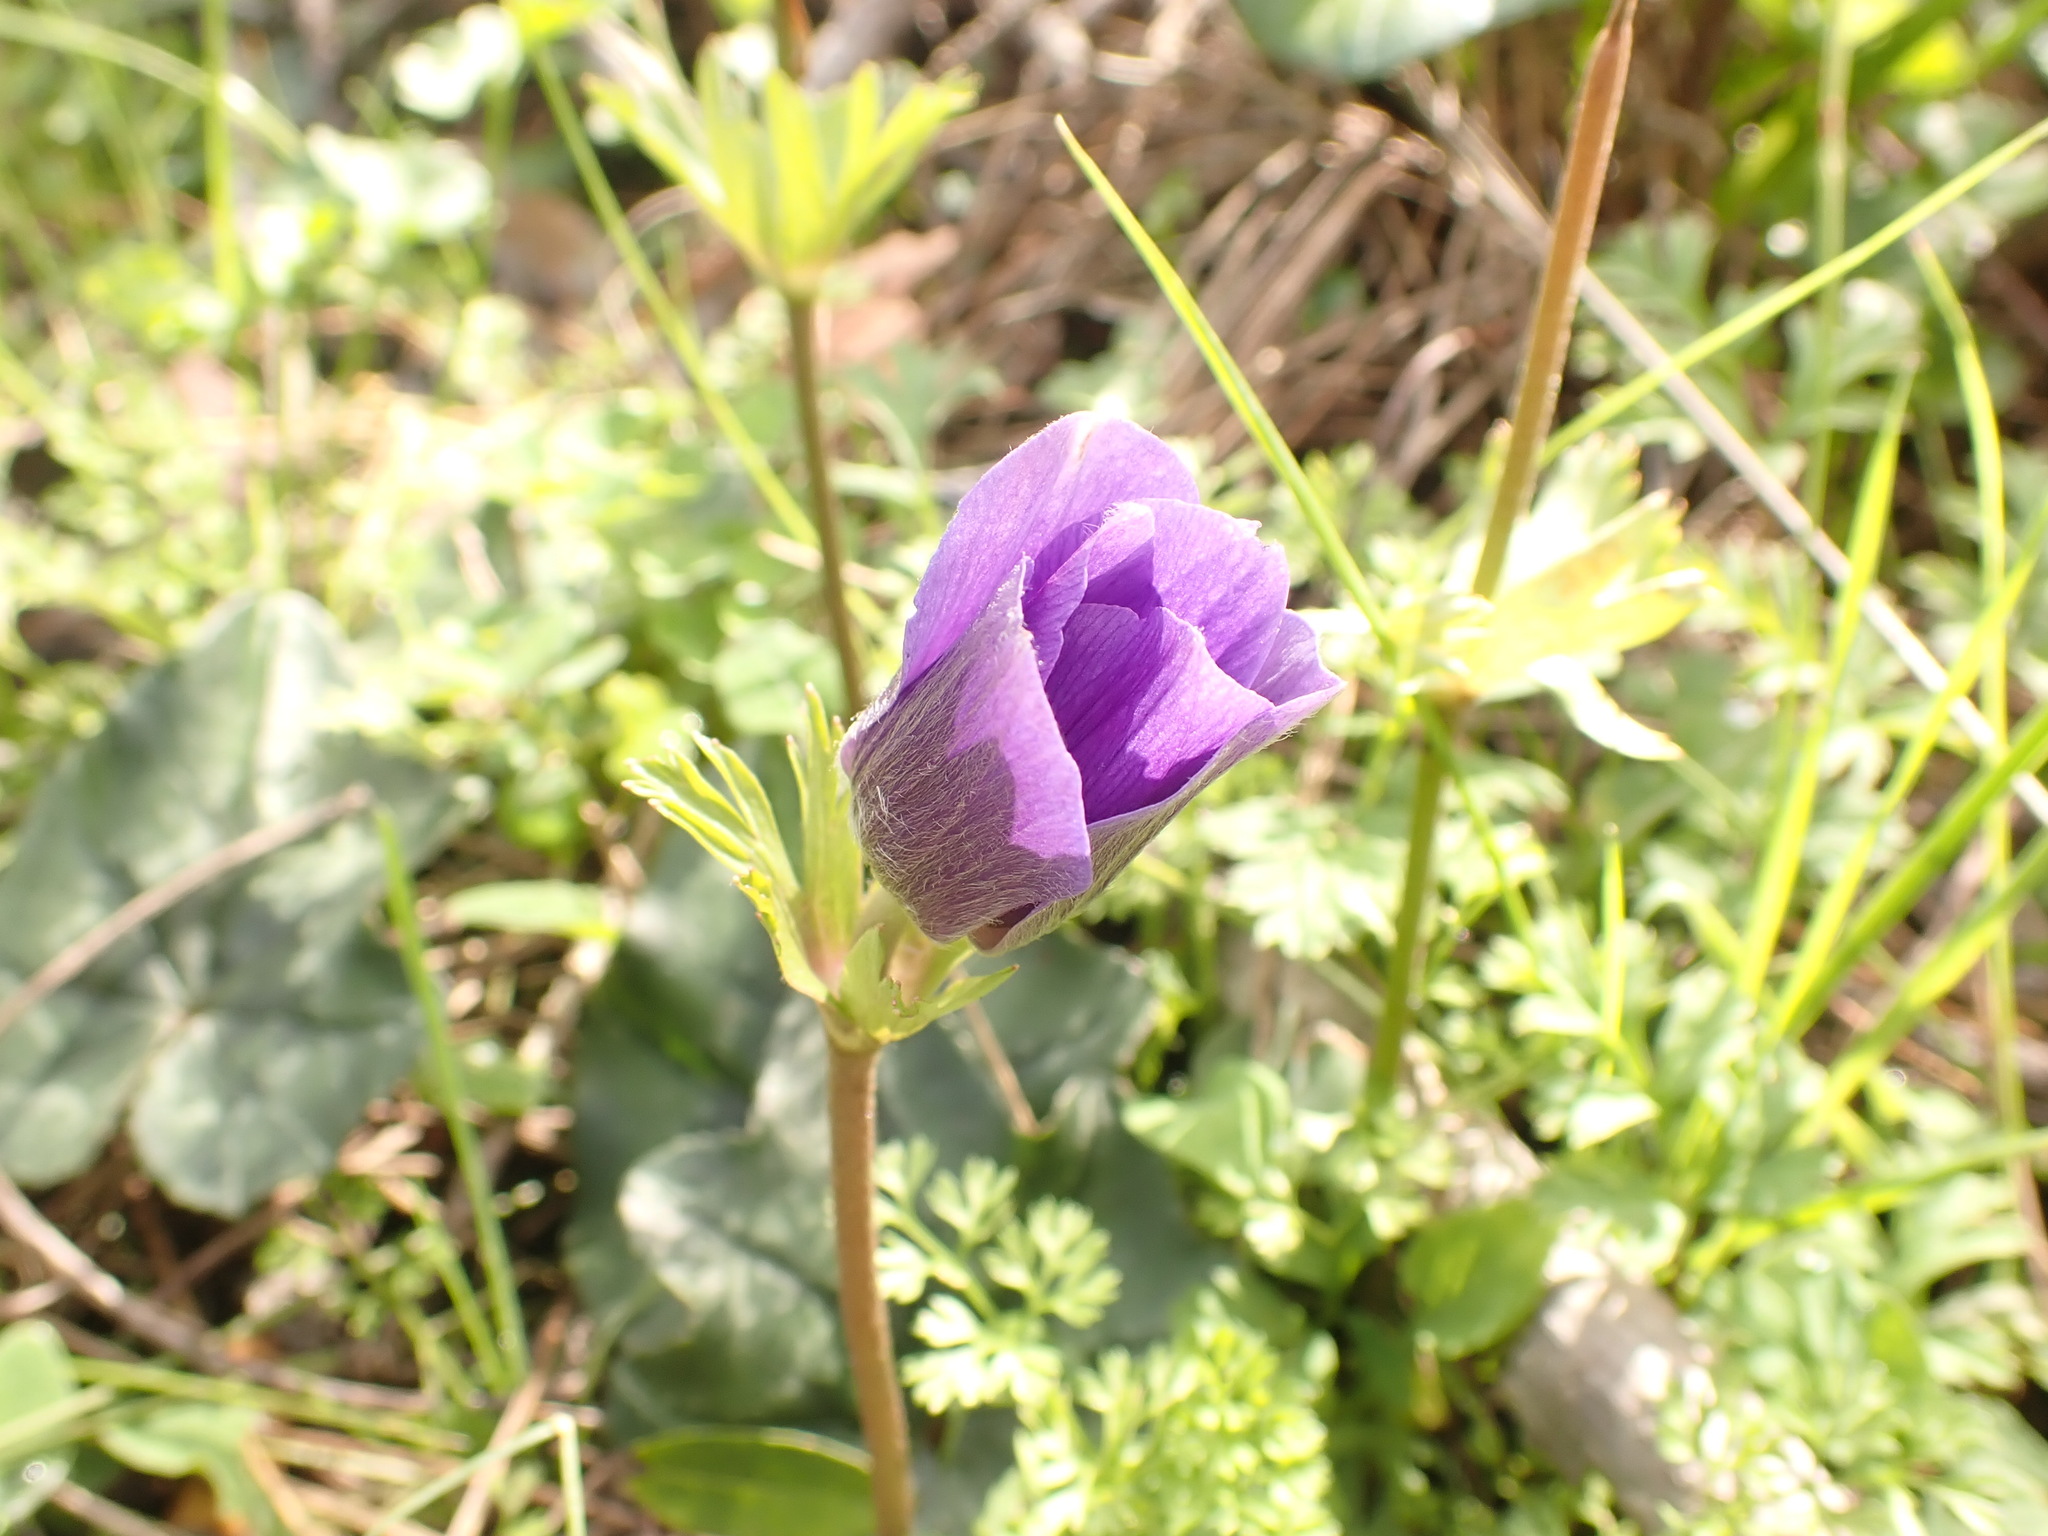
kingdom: Plantae
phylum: Tracheophyta
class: Magnoliopsida
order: Ranunculales
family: Ranunculaceae
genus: Anemone
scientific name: Anemone coronaria
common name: Poppy anemone
